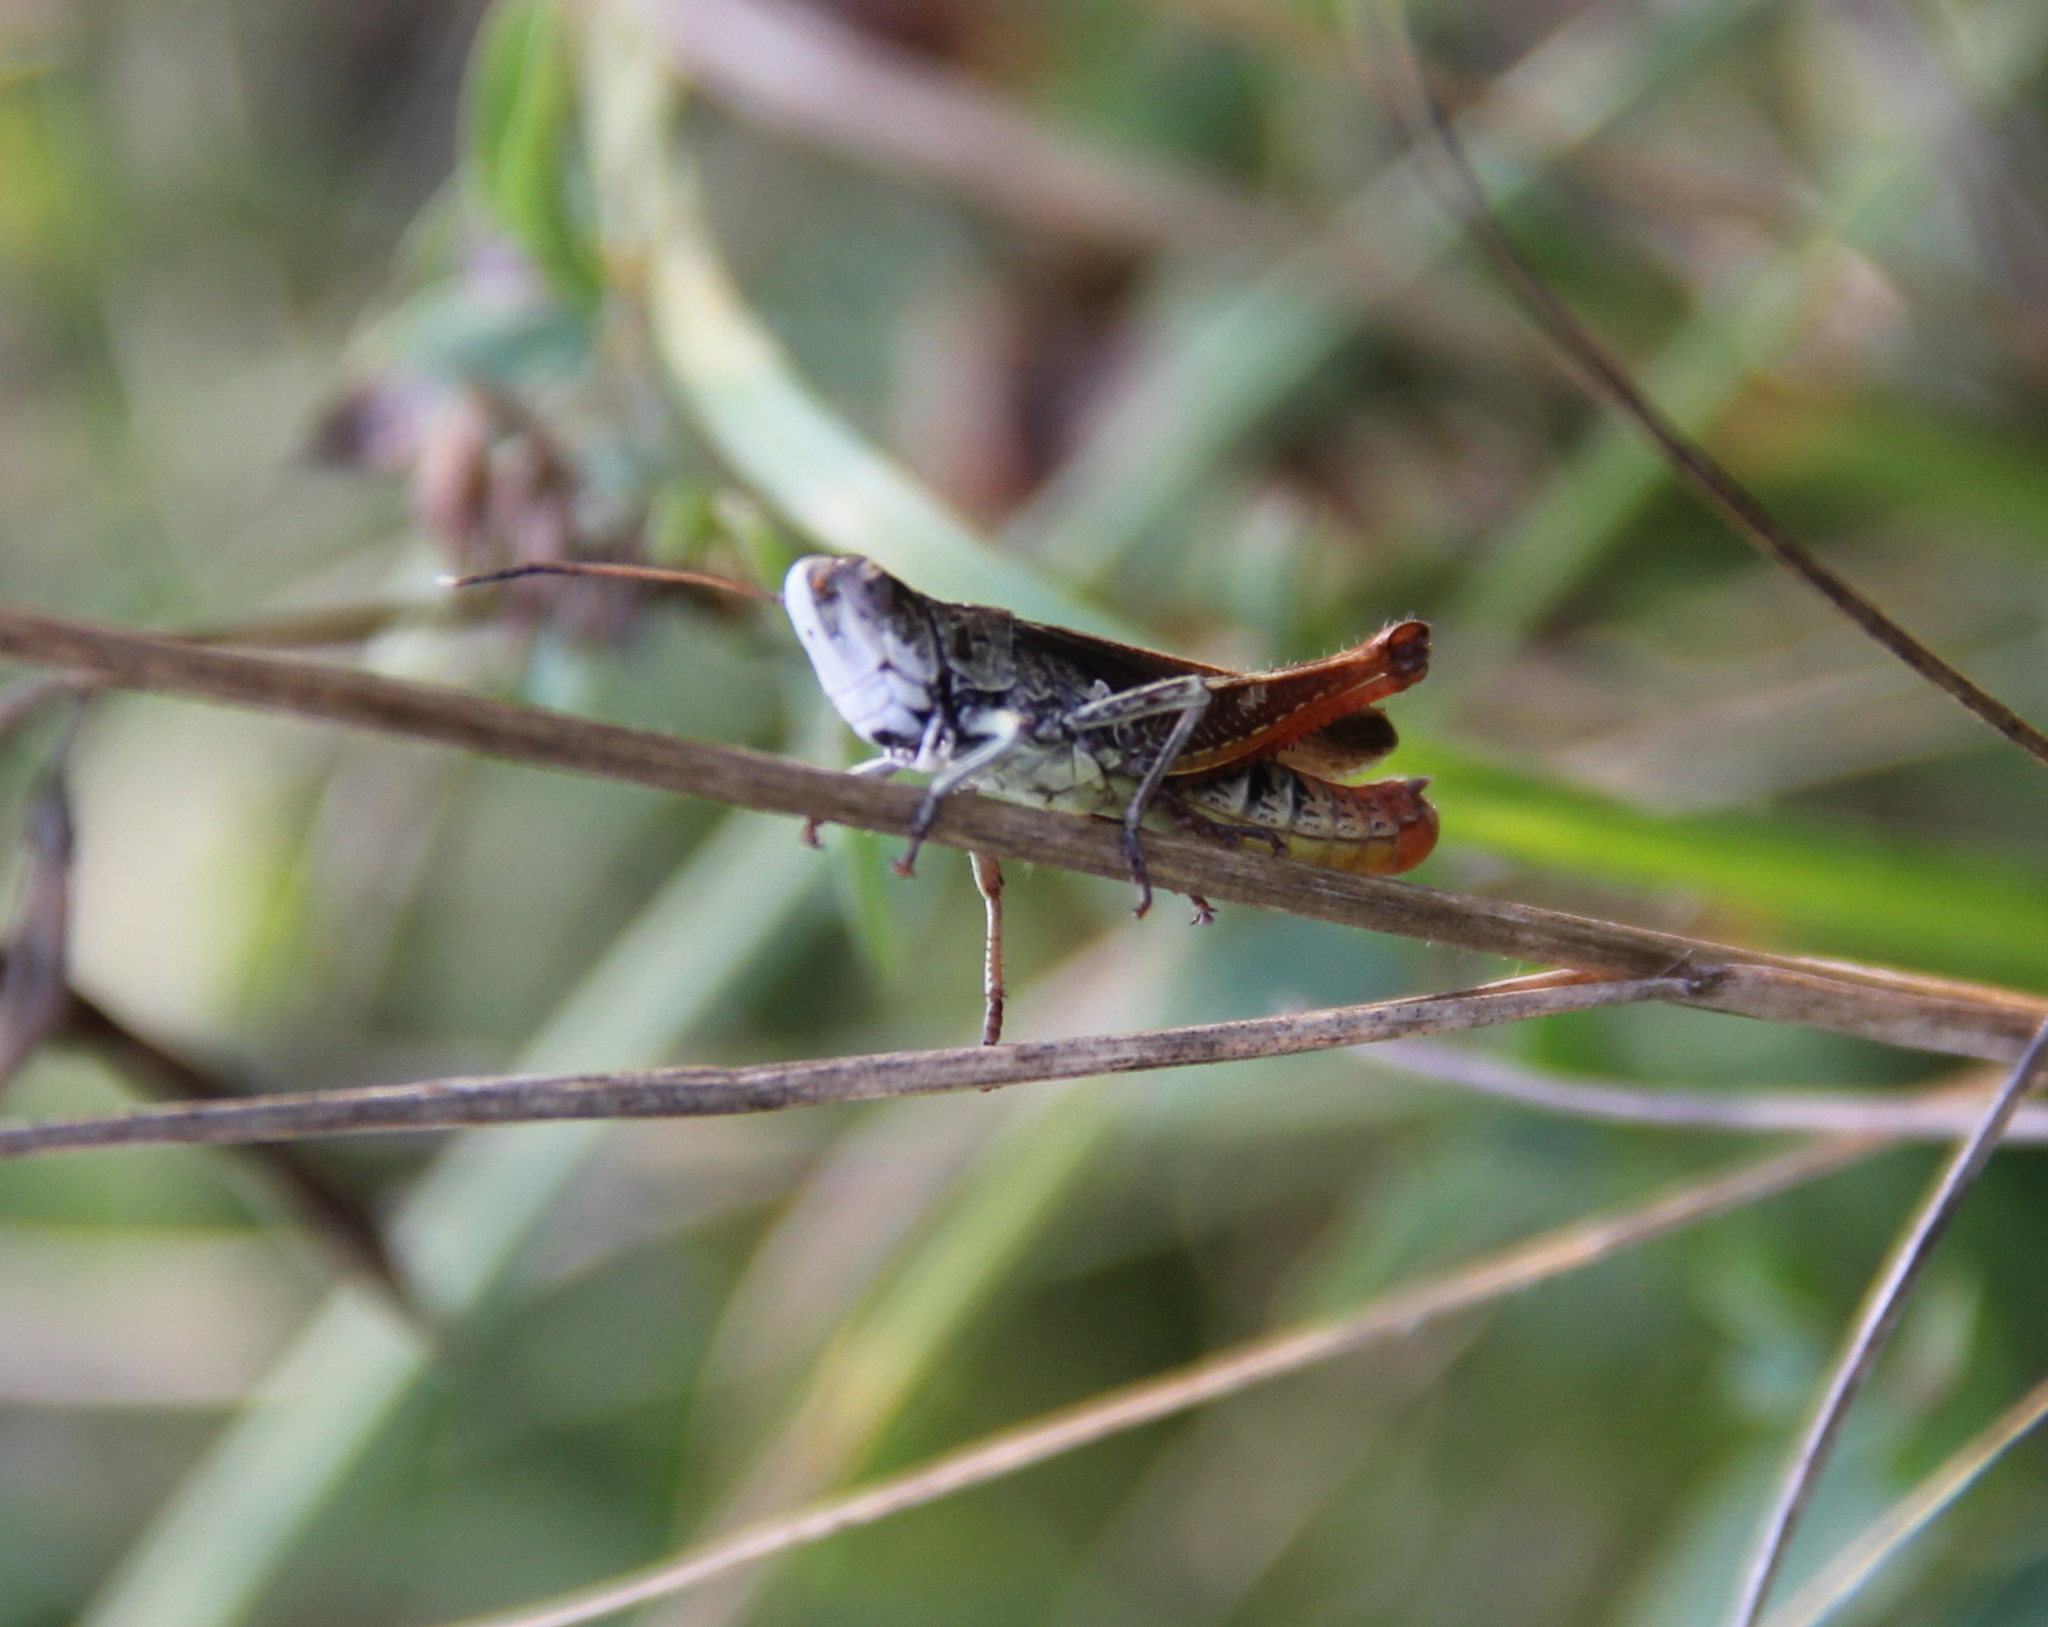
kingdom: Animalia
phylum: Arthropoda
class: Insecta
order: Orthoptera
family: Acrididae
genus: Gomphocerippus
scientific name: Gomphocerippus rufus
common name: Rufous grasshopper
